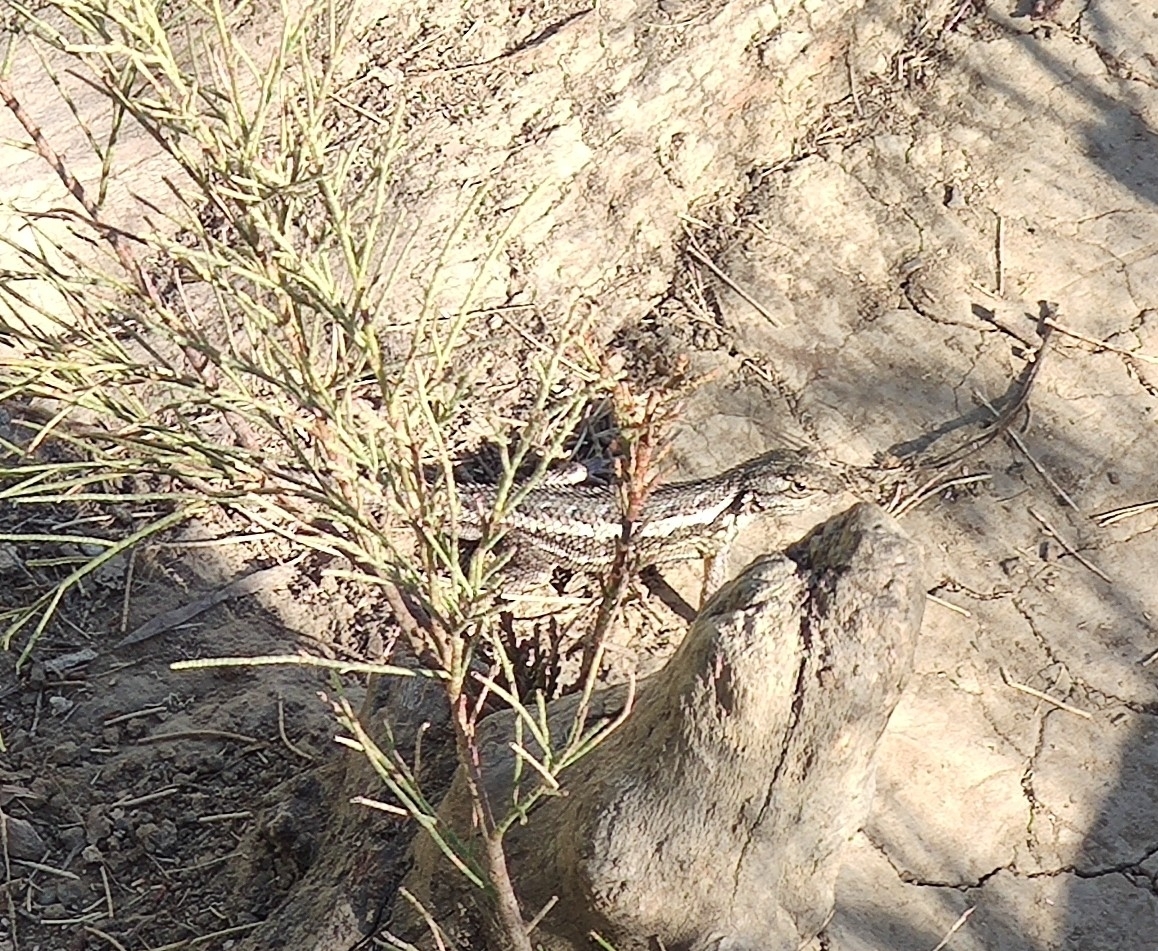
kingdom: Animalia
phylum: Chordata
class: Squamata
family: Phrynosomatidae
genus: Sceloporus
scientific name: Sceloporus occidentalis
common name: Western fence lizard
